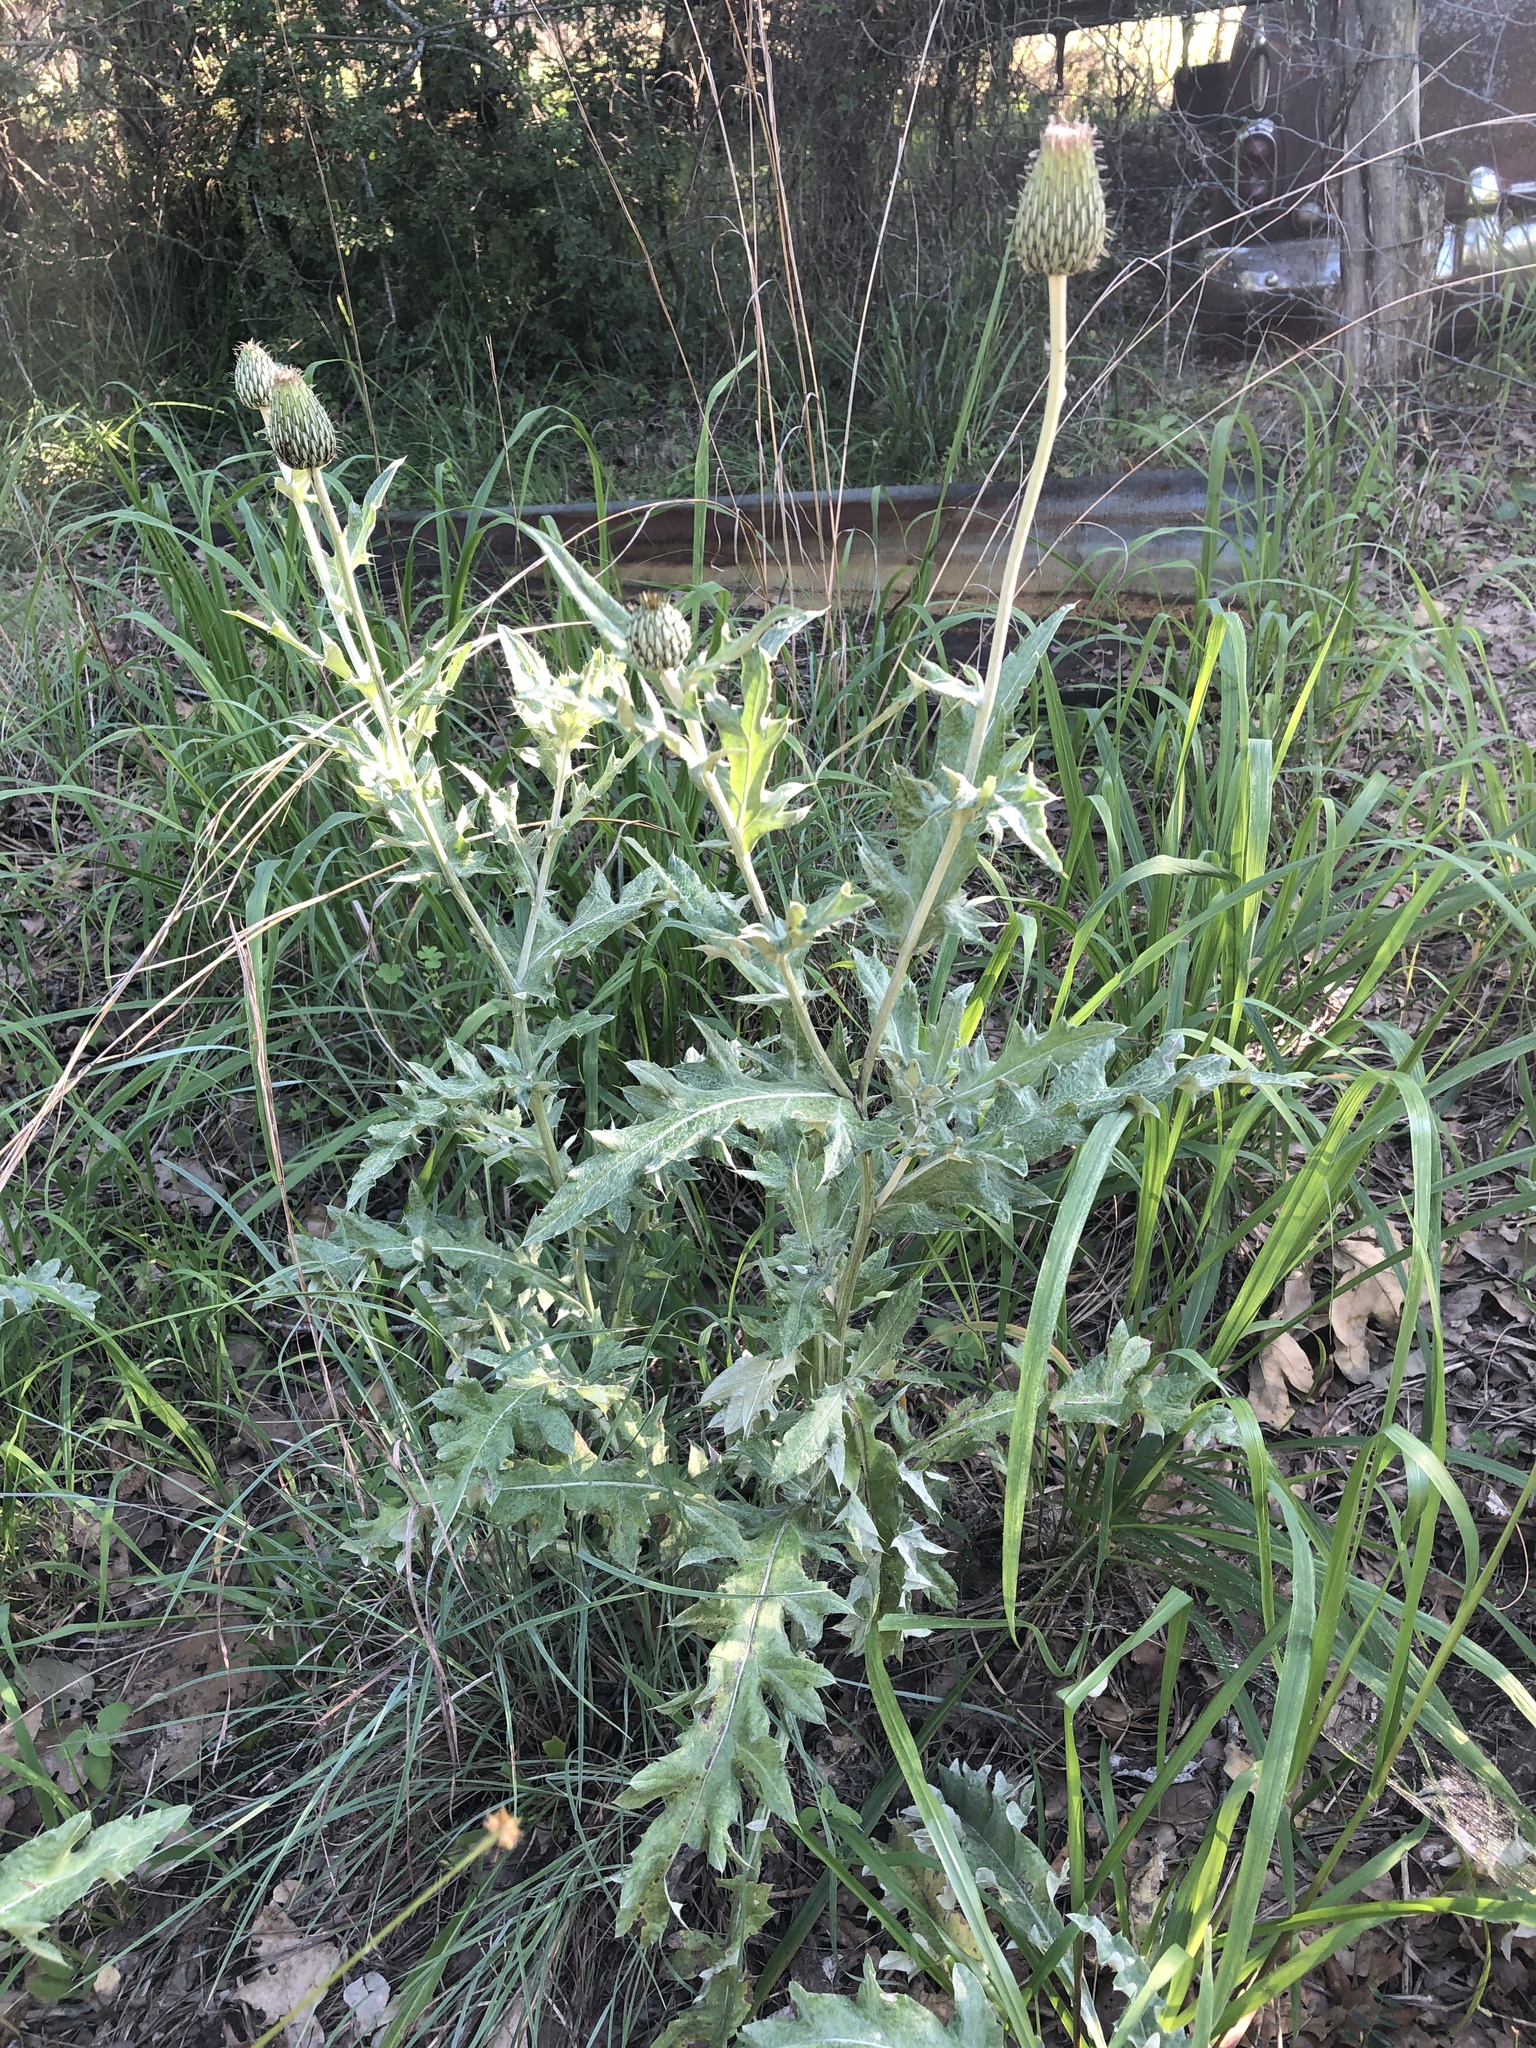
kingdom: Plantae
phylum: Tracheophyta
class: Magnoliopsida
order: Asterales
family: Asteraceae
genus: Cirsium
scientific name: Cirsium undulatum
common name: Pasture thistle
